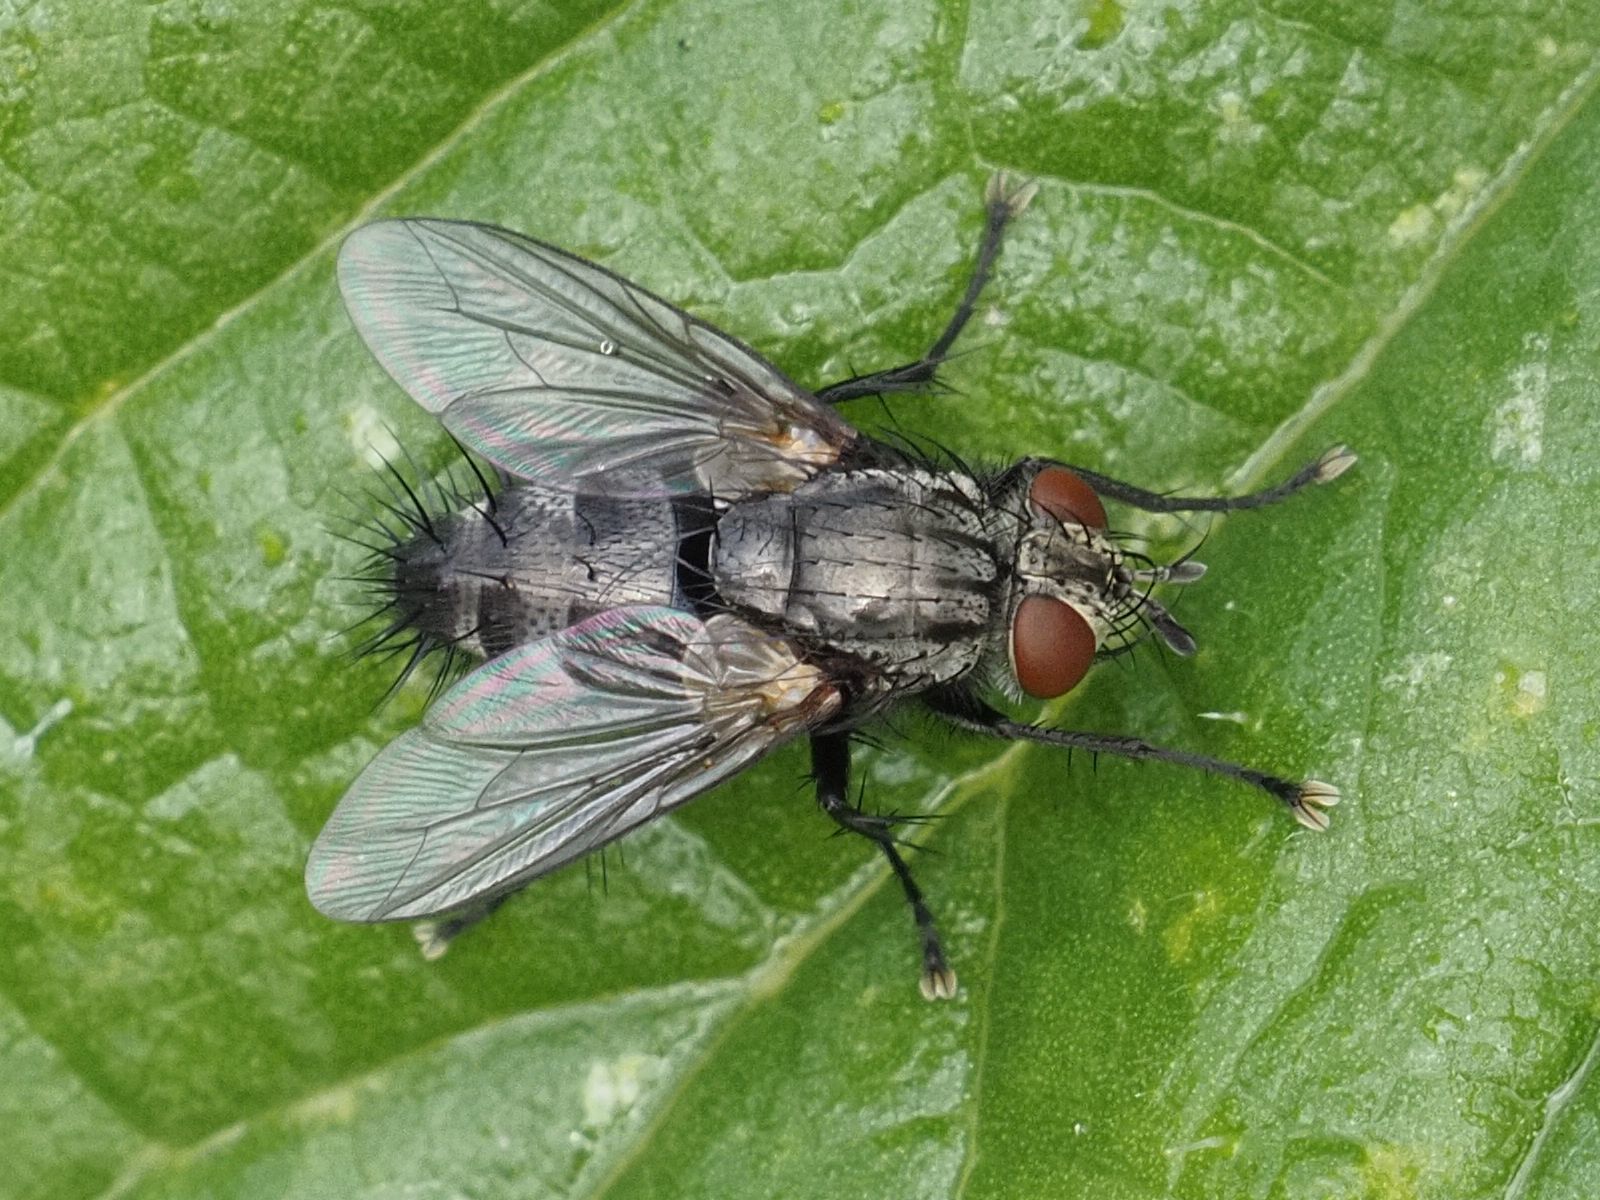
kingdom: Animalia
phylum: Arthropoda
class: Insecta
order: Diptera
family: Tachinidae
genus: Voria
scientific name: Voria ruralis
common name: Parasitic fly
